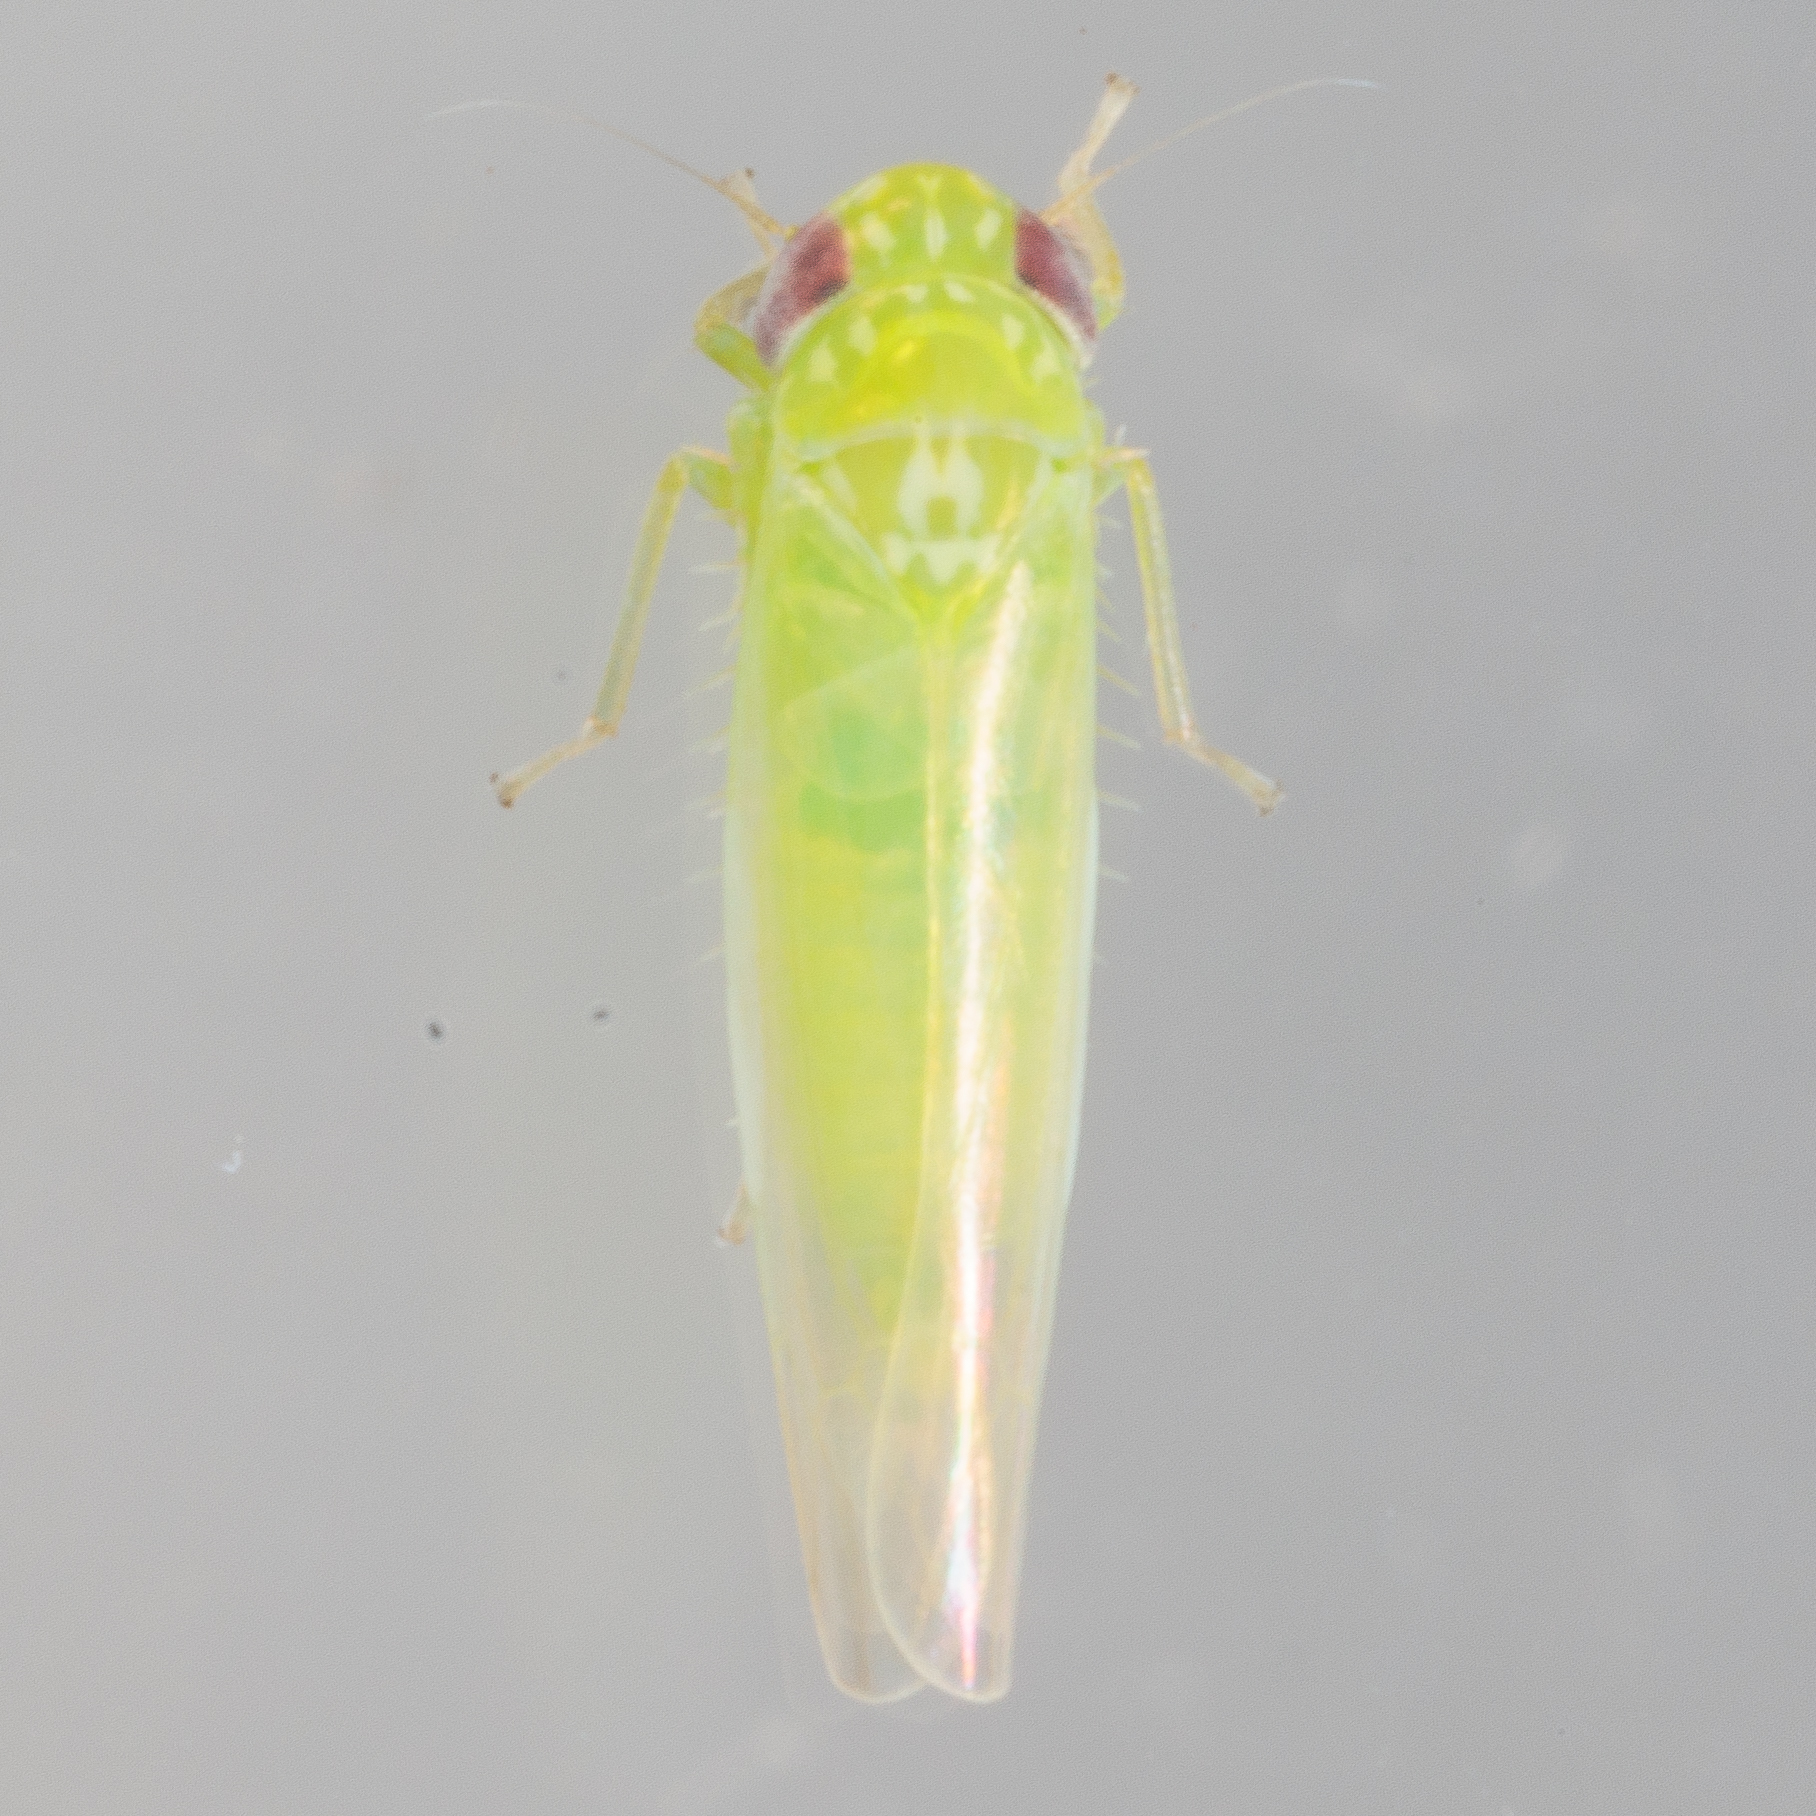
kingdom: Animalia
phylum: Arthropoda
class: Insecta
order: Hemiptera
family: Cicadellidae
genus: Empoasca
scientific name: Empoasca fabae
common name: Potato leafhopper
